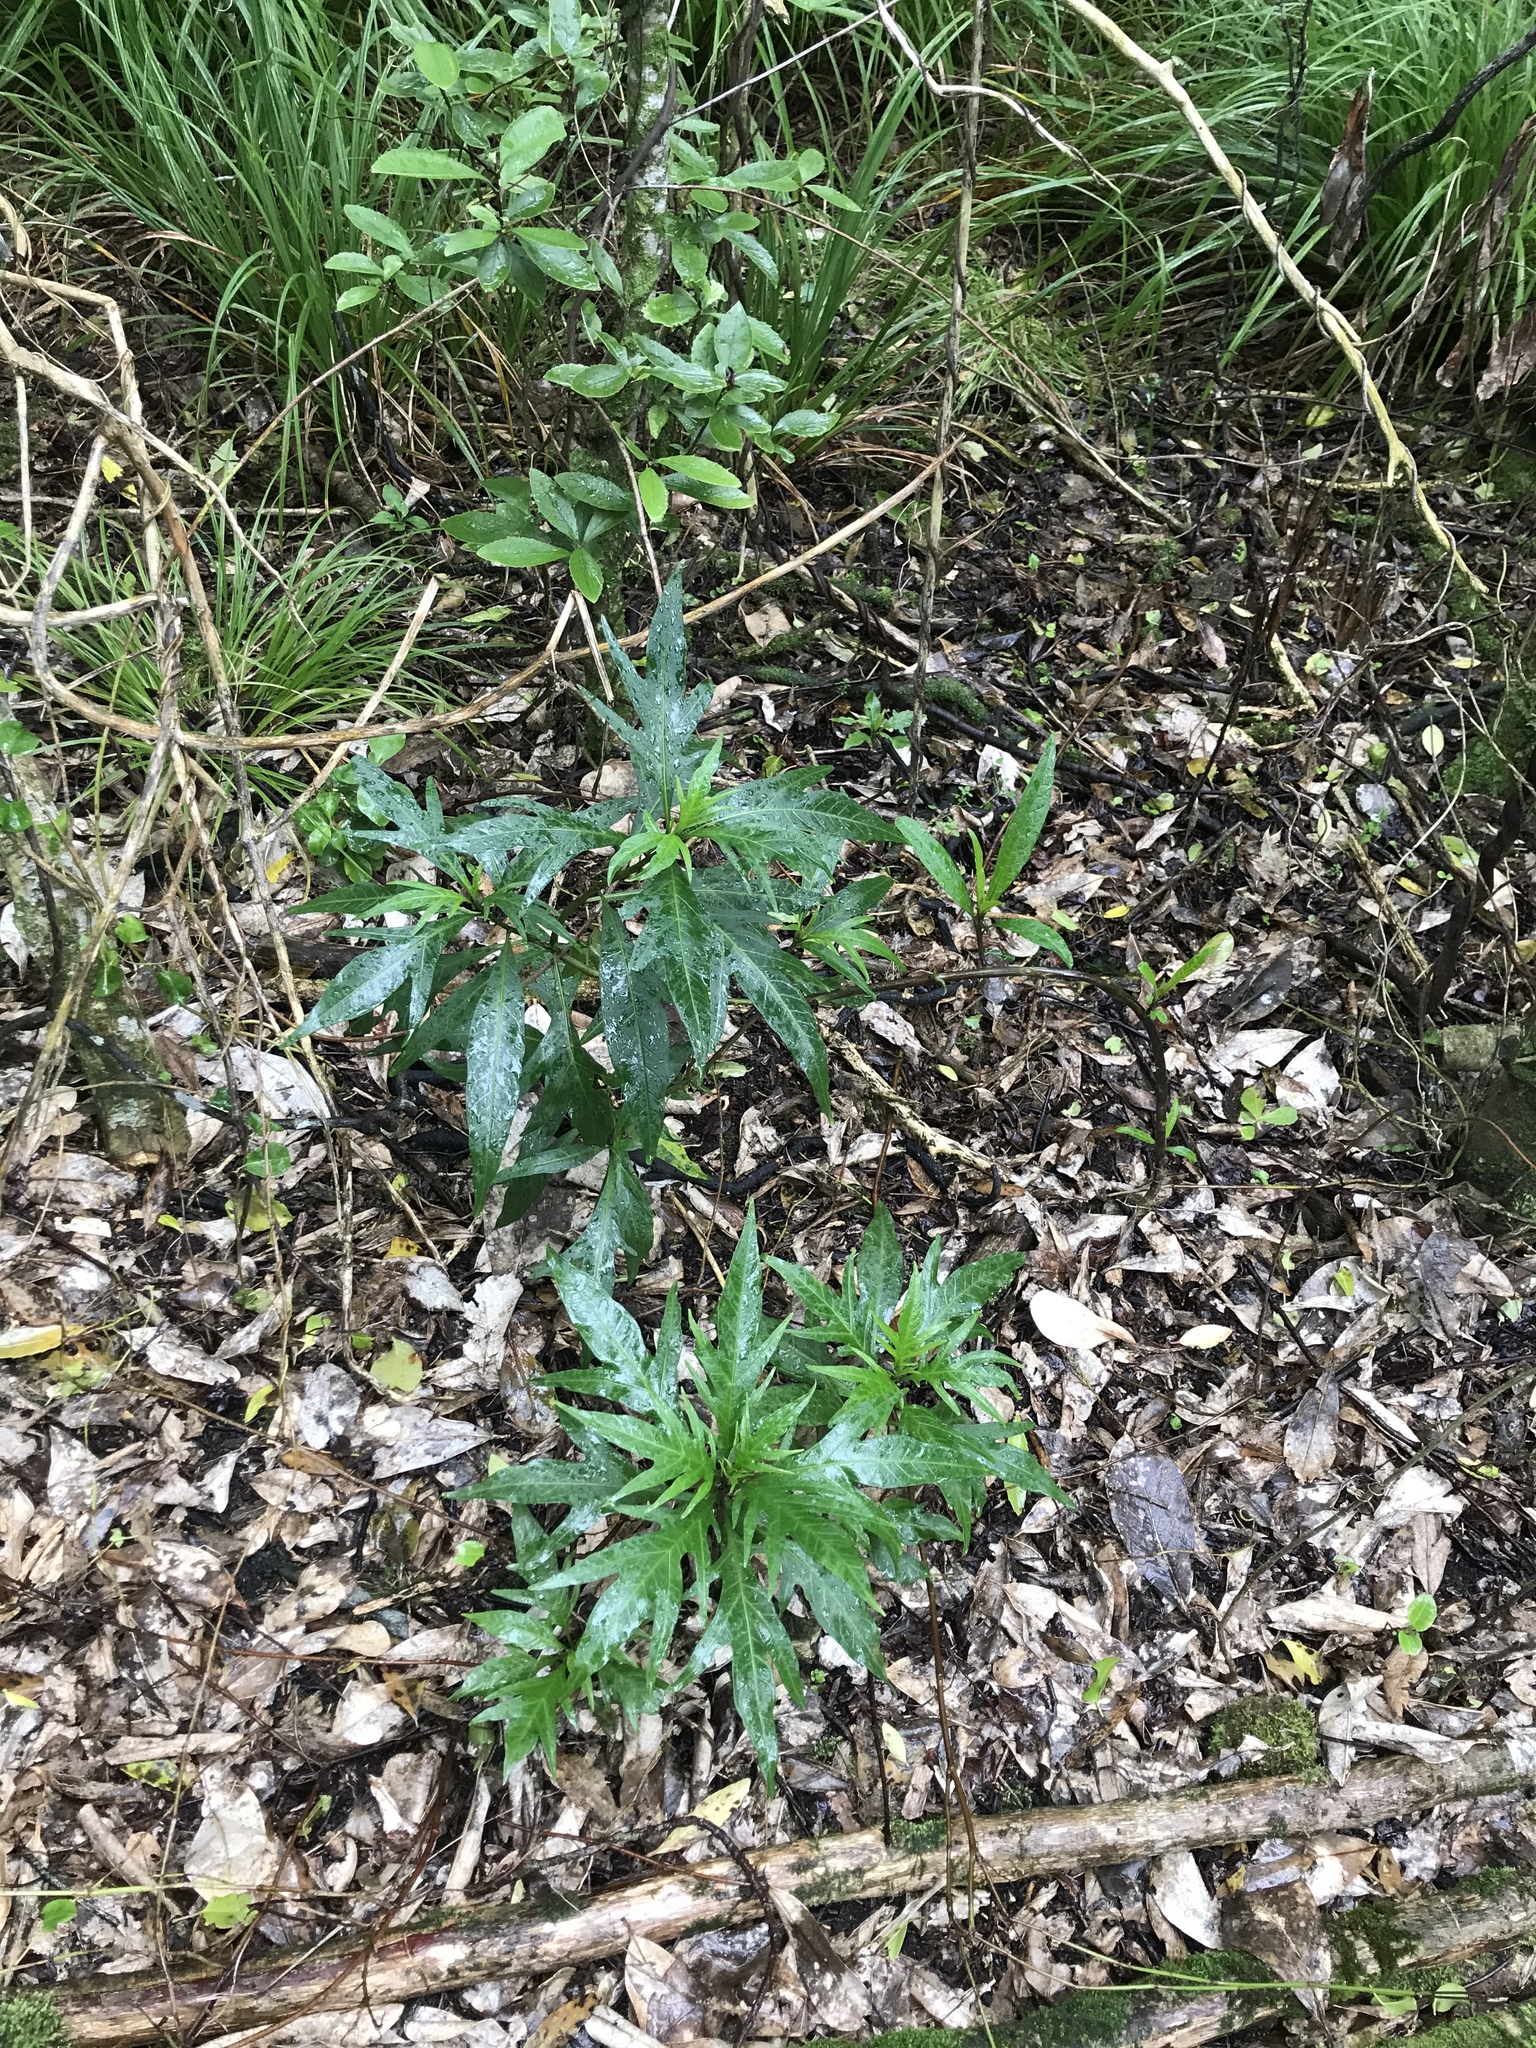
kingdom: Plantae
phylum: Tracheophyta
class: Magnoliopsida
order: Solanales
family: Solanaceae
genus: Solanum
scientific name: Solanum
